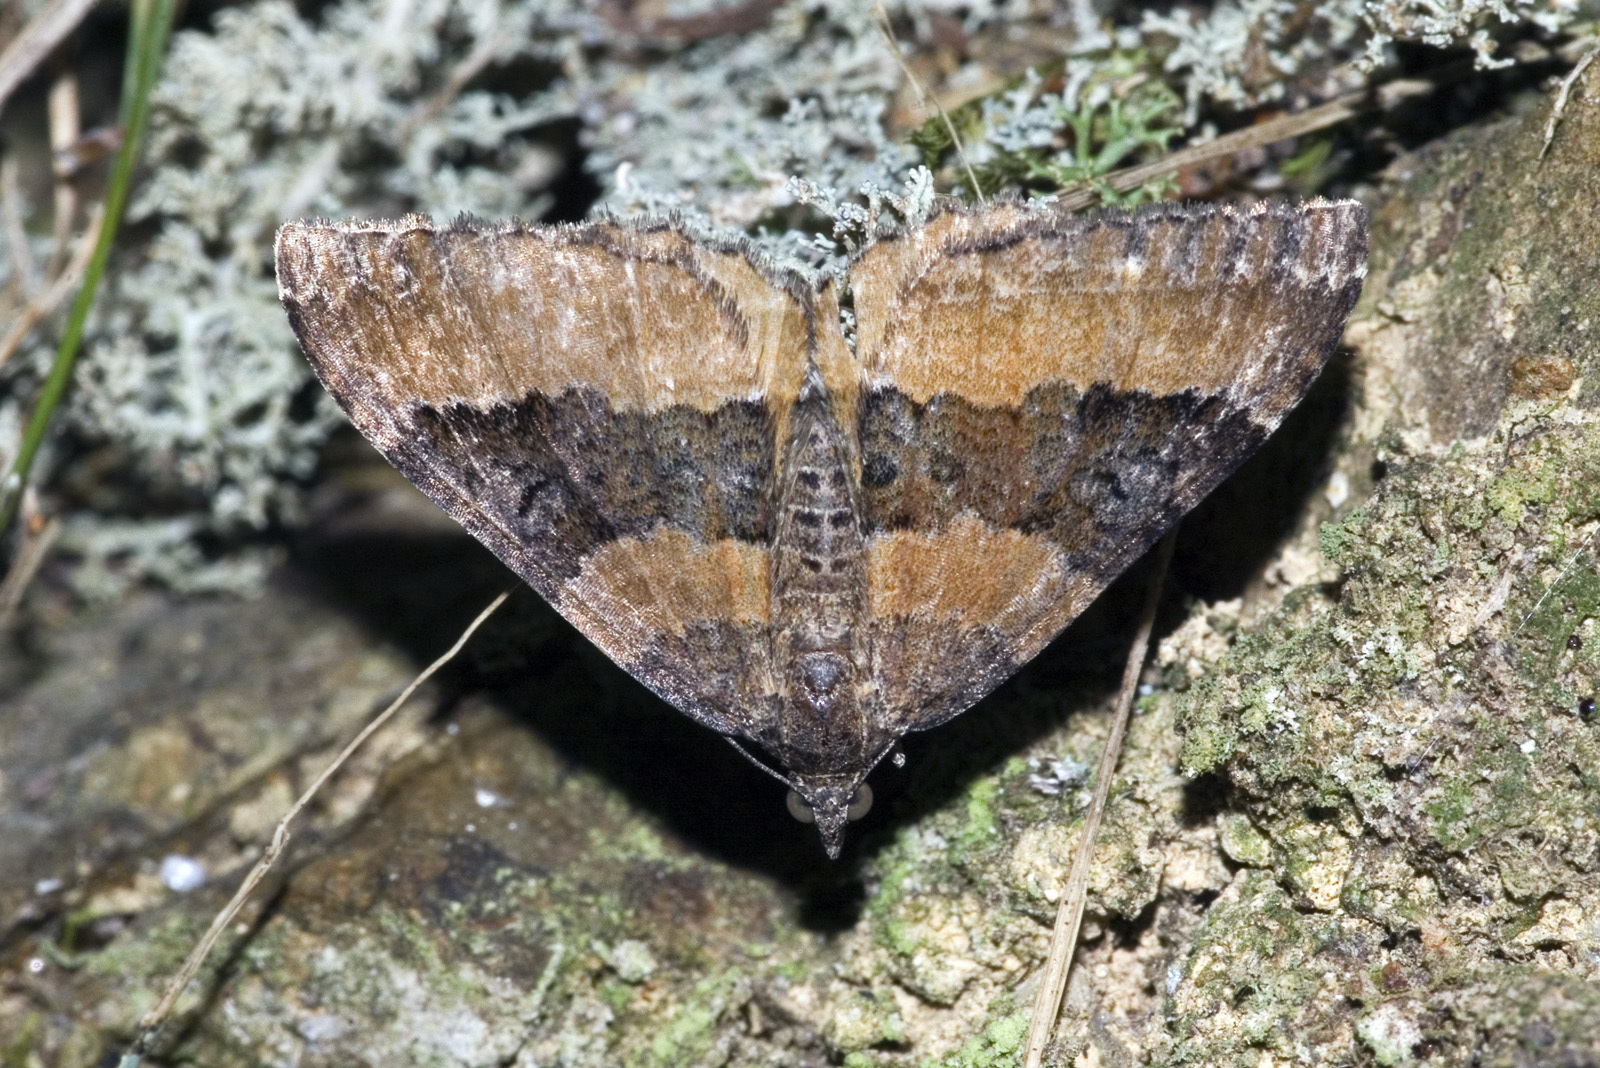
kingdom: Animalia
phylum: Arthropoda
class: Insecta
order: Lepidoptera
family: Geometridae
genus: Hydriomena
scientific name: Hydriomena deltoidata
